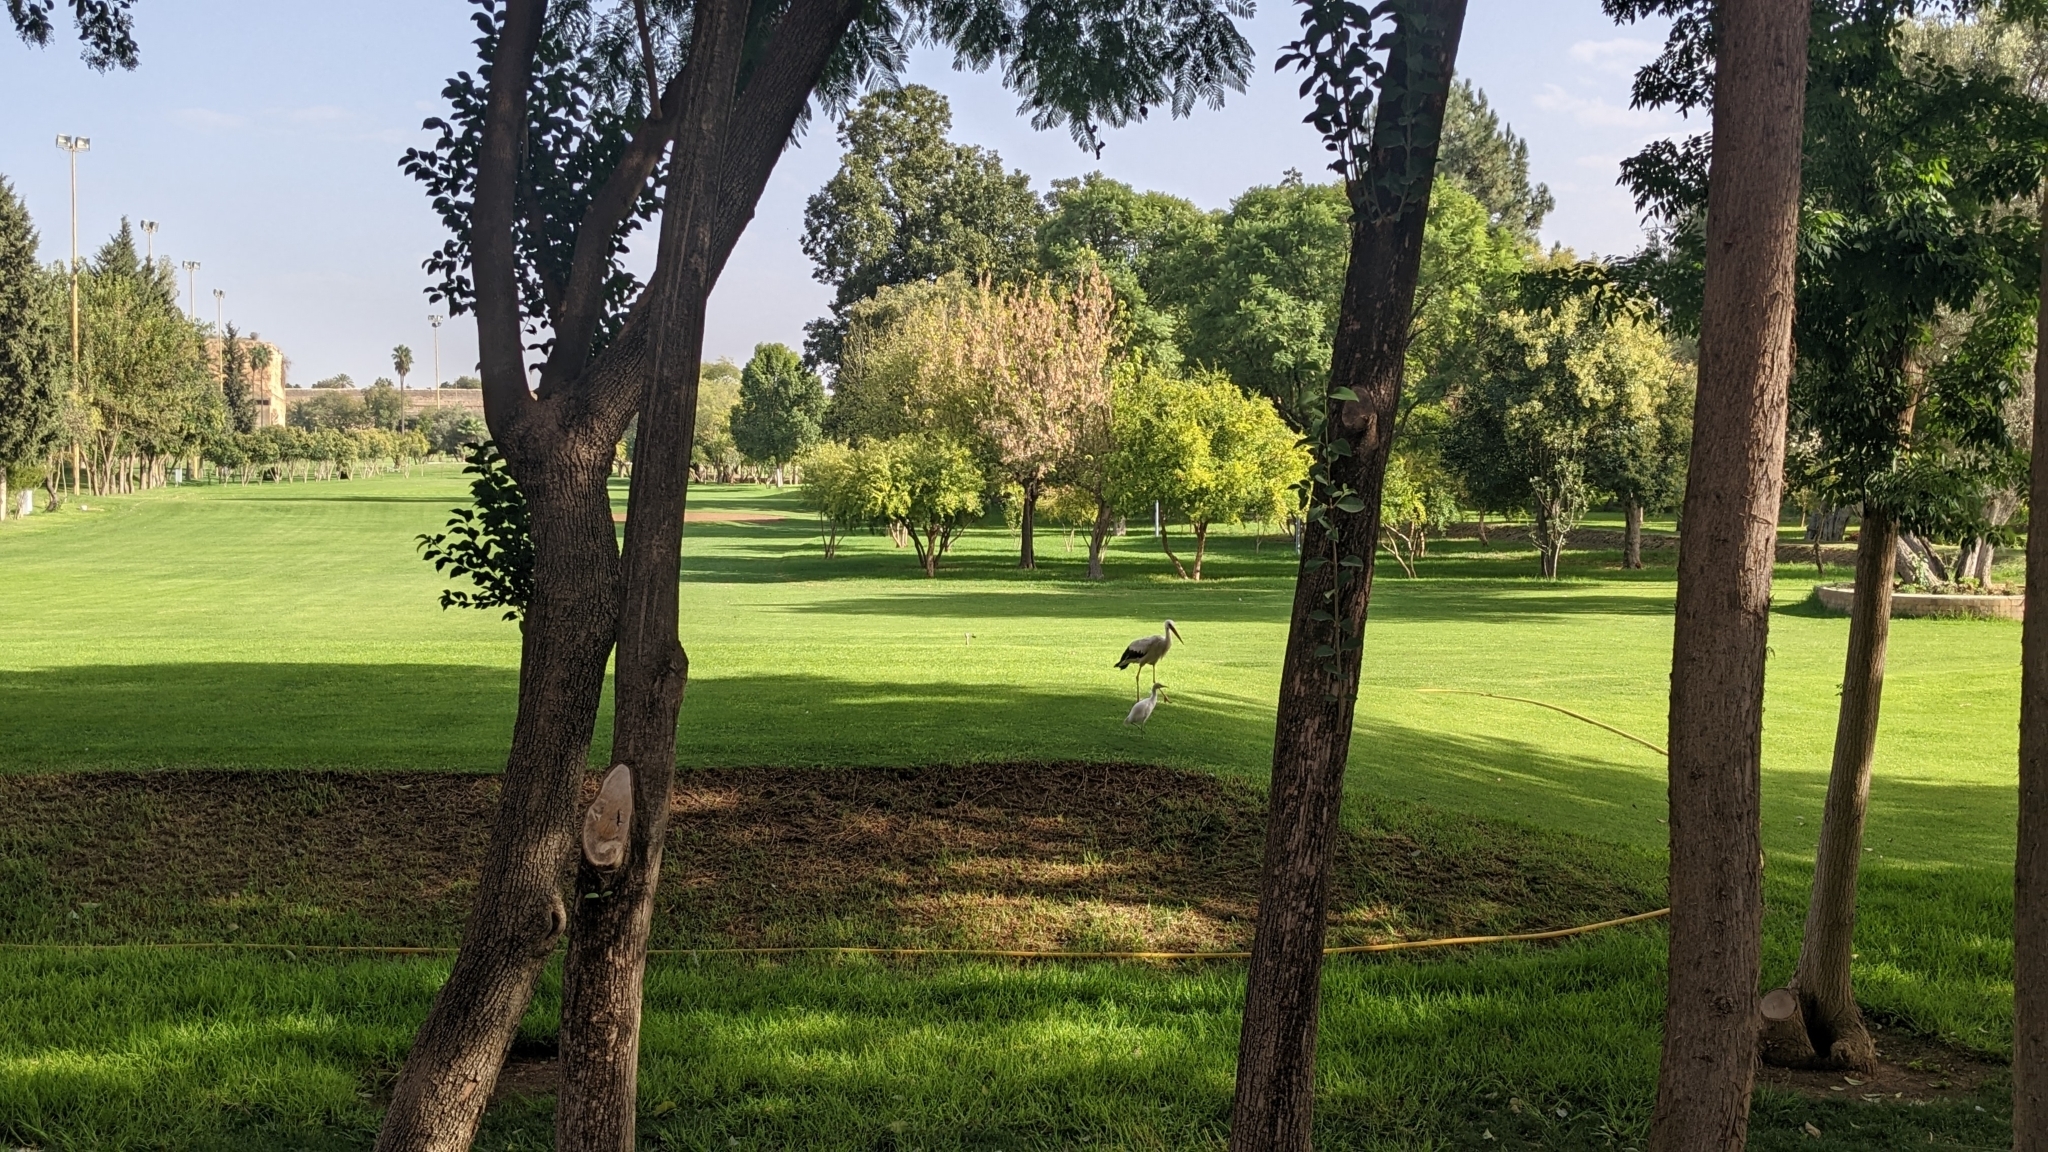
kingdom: Animalia
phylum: Chordata
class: Aves
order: Ciconiiformes
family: Ciconiidae
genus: Ciconia
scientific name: Ciconia ciconia
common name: White stork
